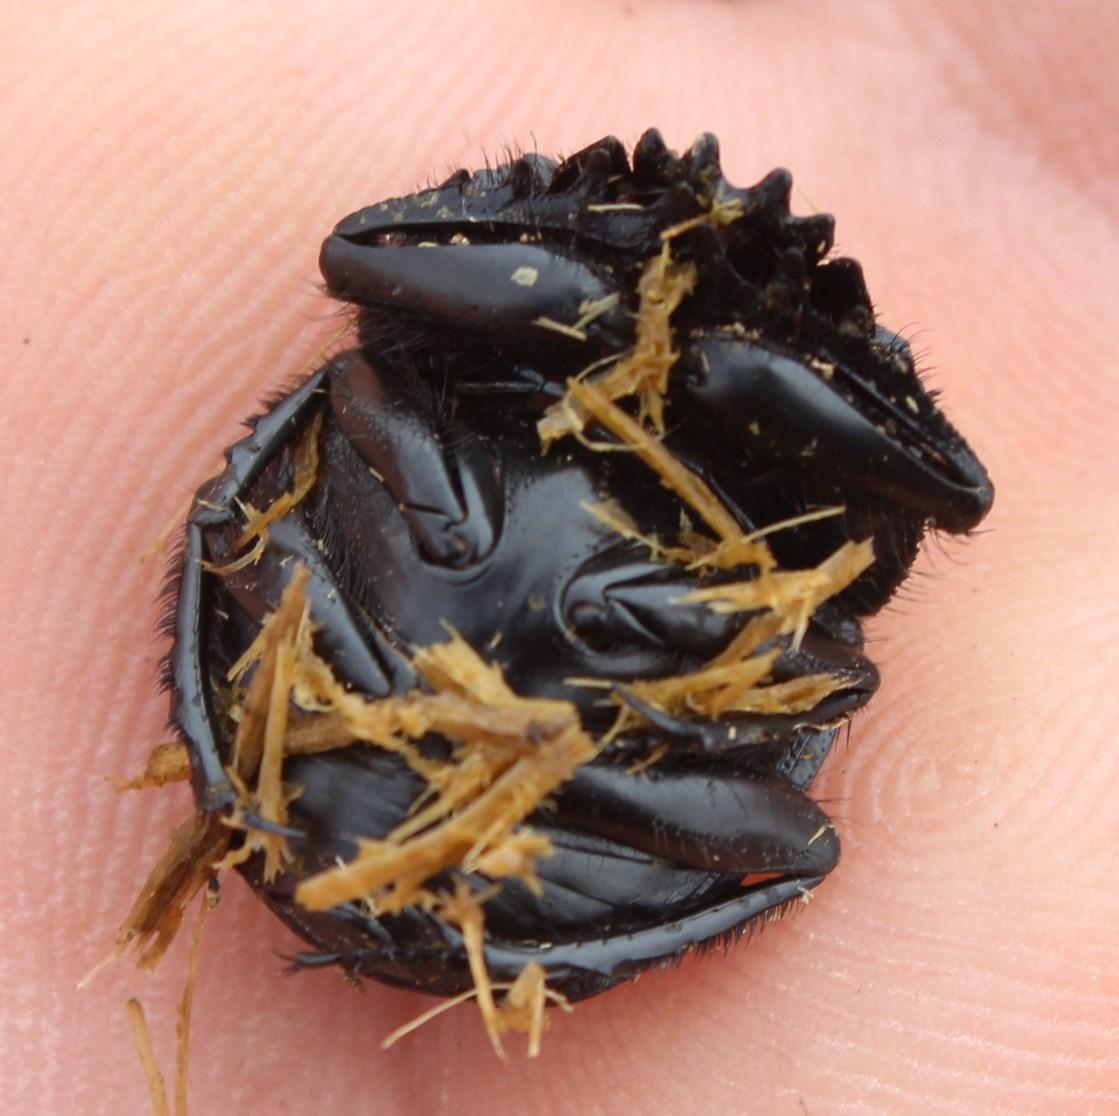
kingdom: Animalia
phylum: Arthropoda
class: Insecta
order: Coleoptera
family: Scarabaeidae
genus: Ateuchetus
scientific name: Ateuchetus hottentorum
